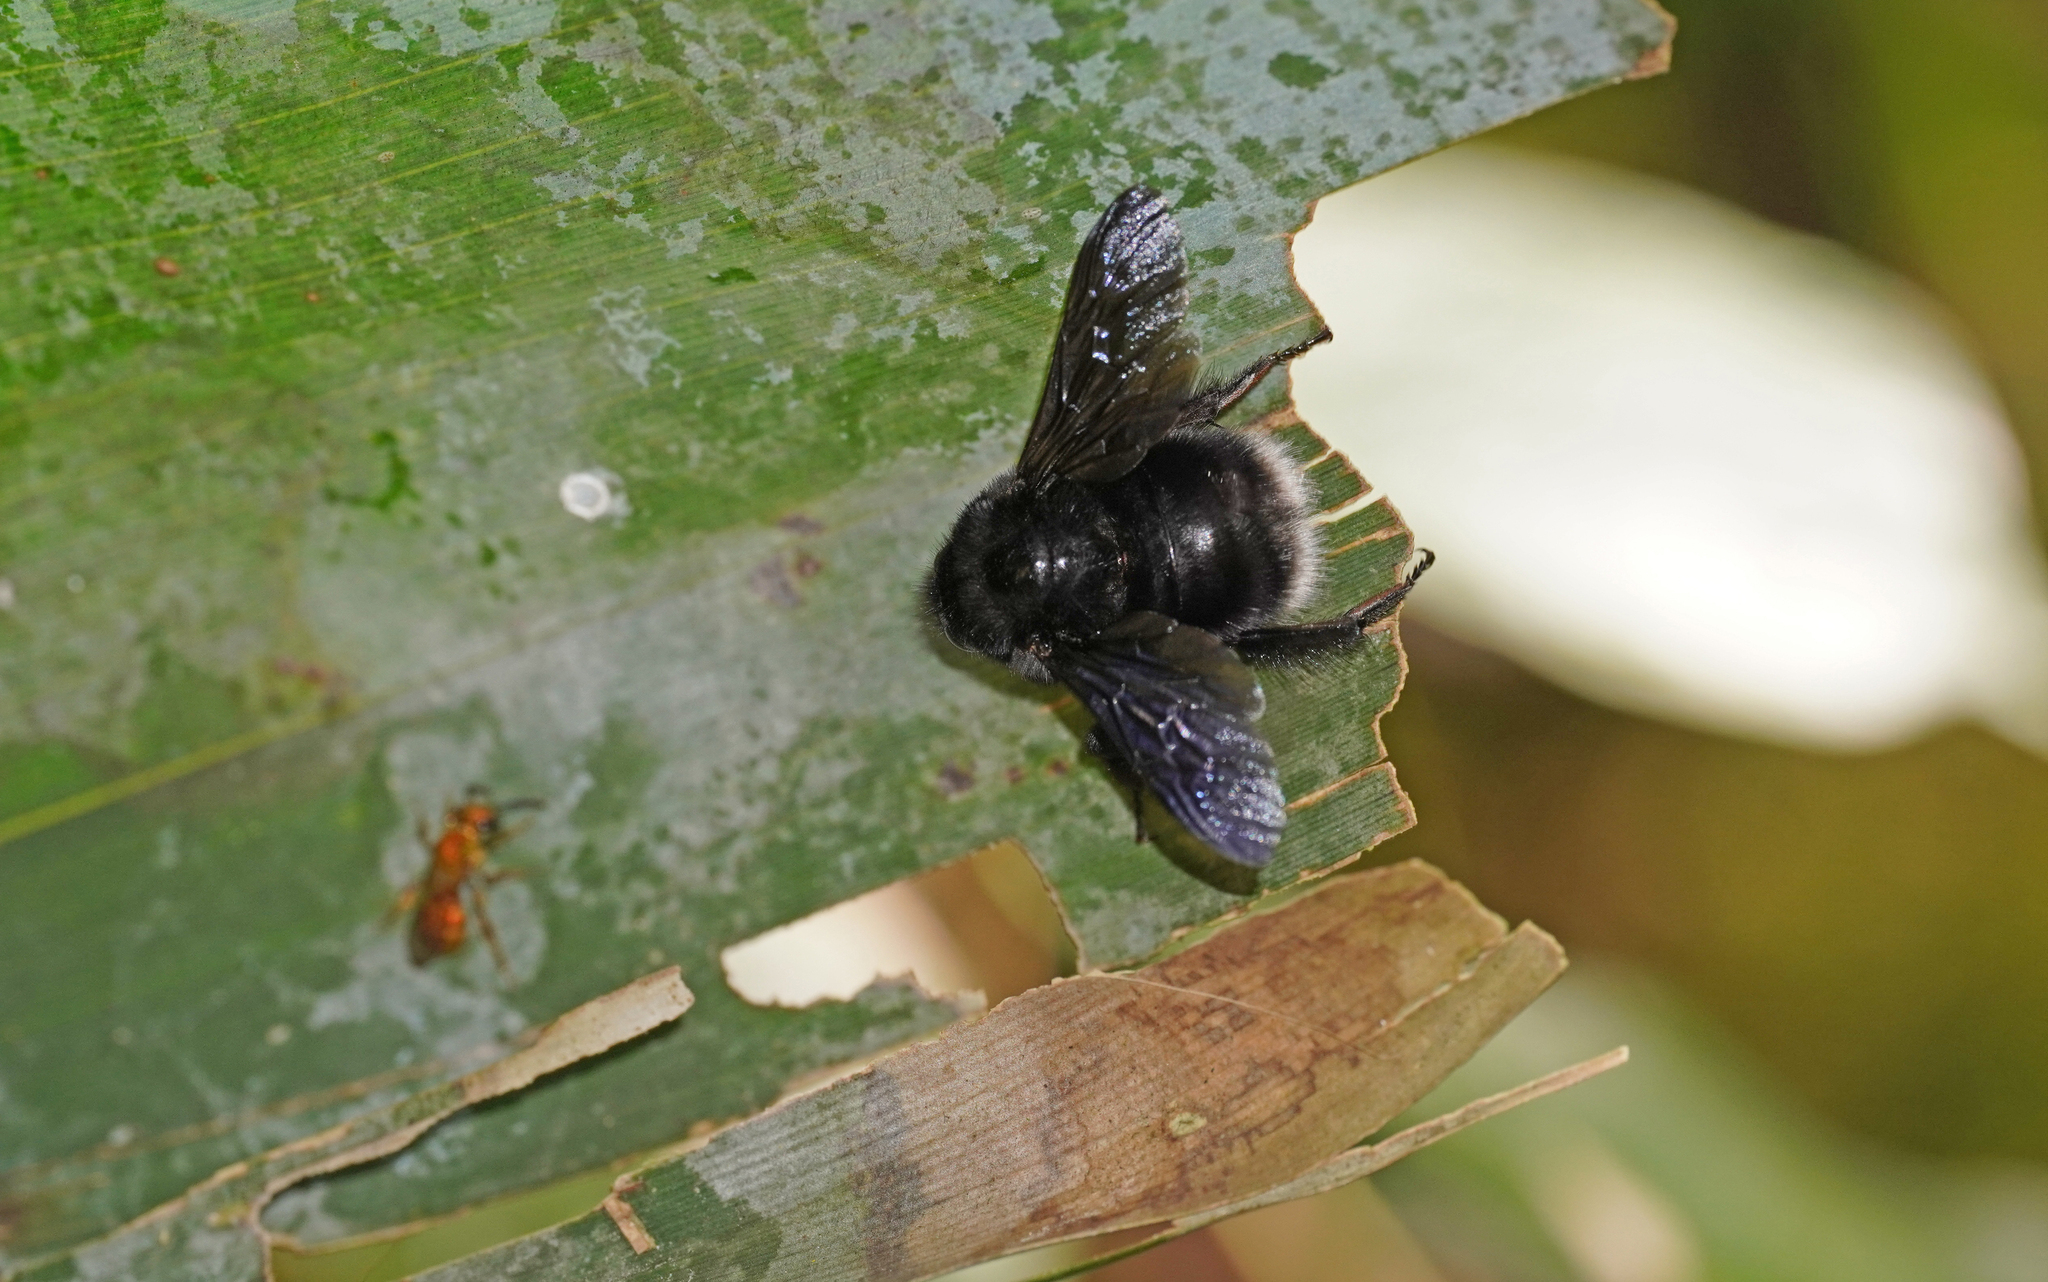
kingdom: Animalia
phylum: Arthropoda
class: Insecta
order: Hymenoptera
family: Apidae
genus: Bombus
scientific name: Bombus melaleucus
